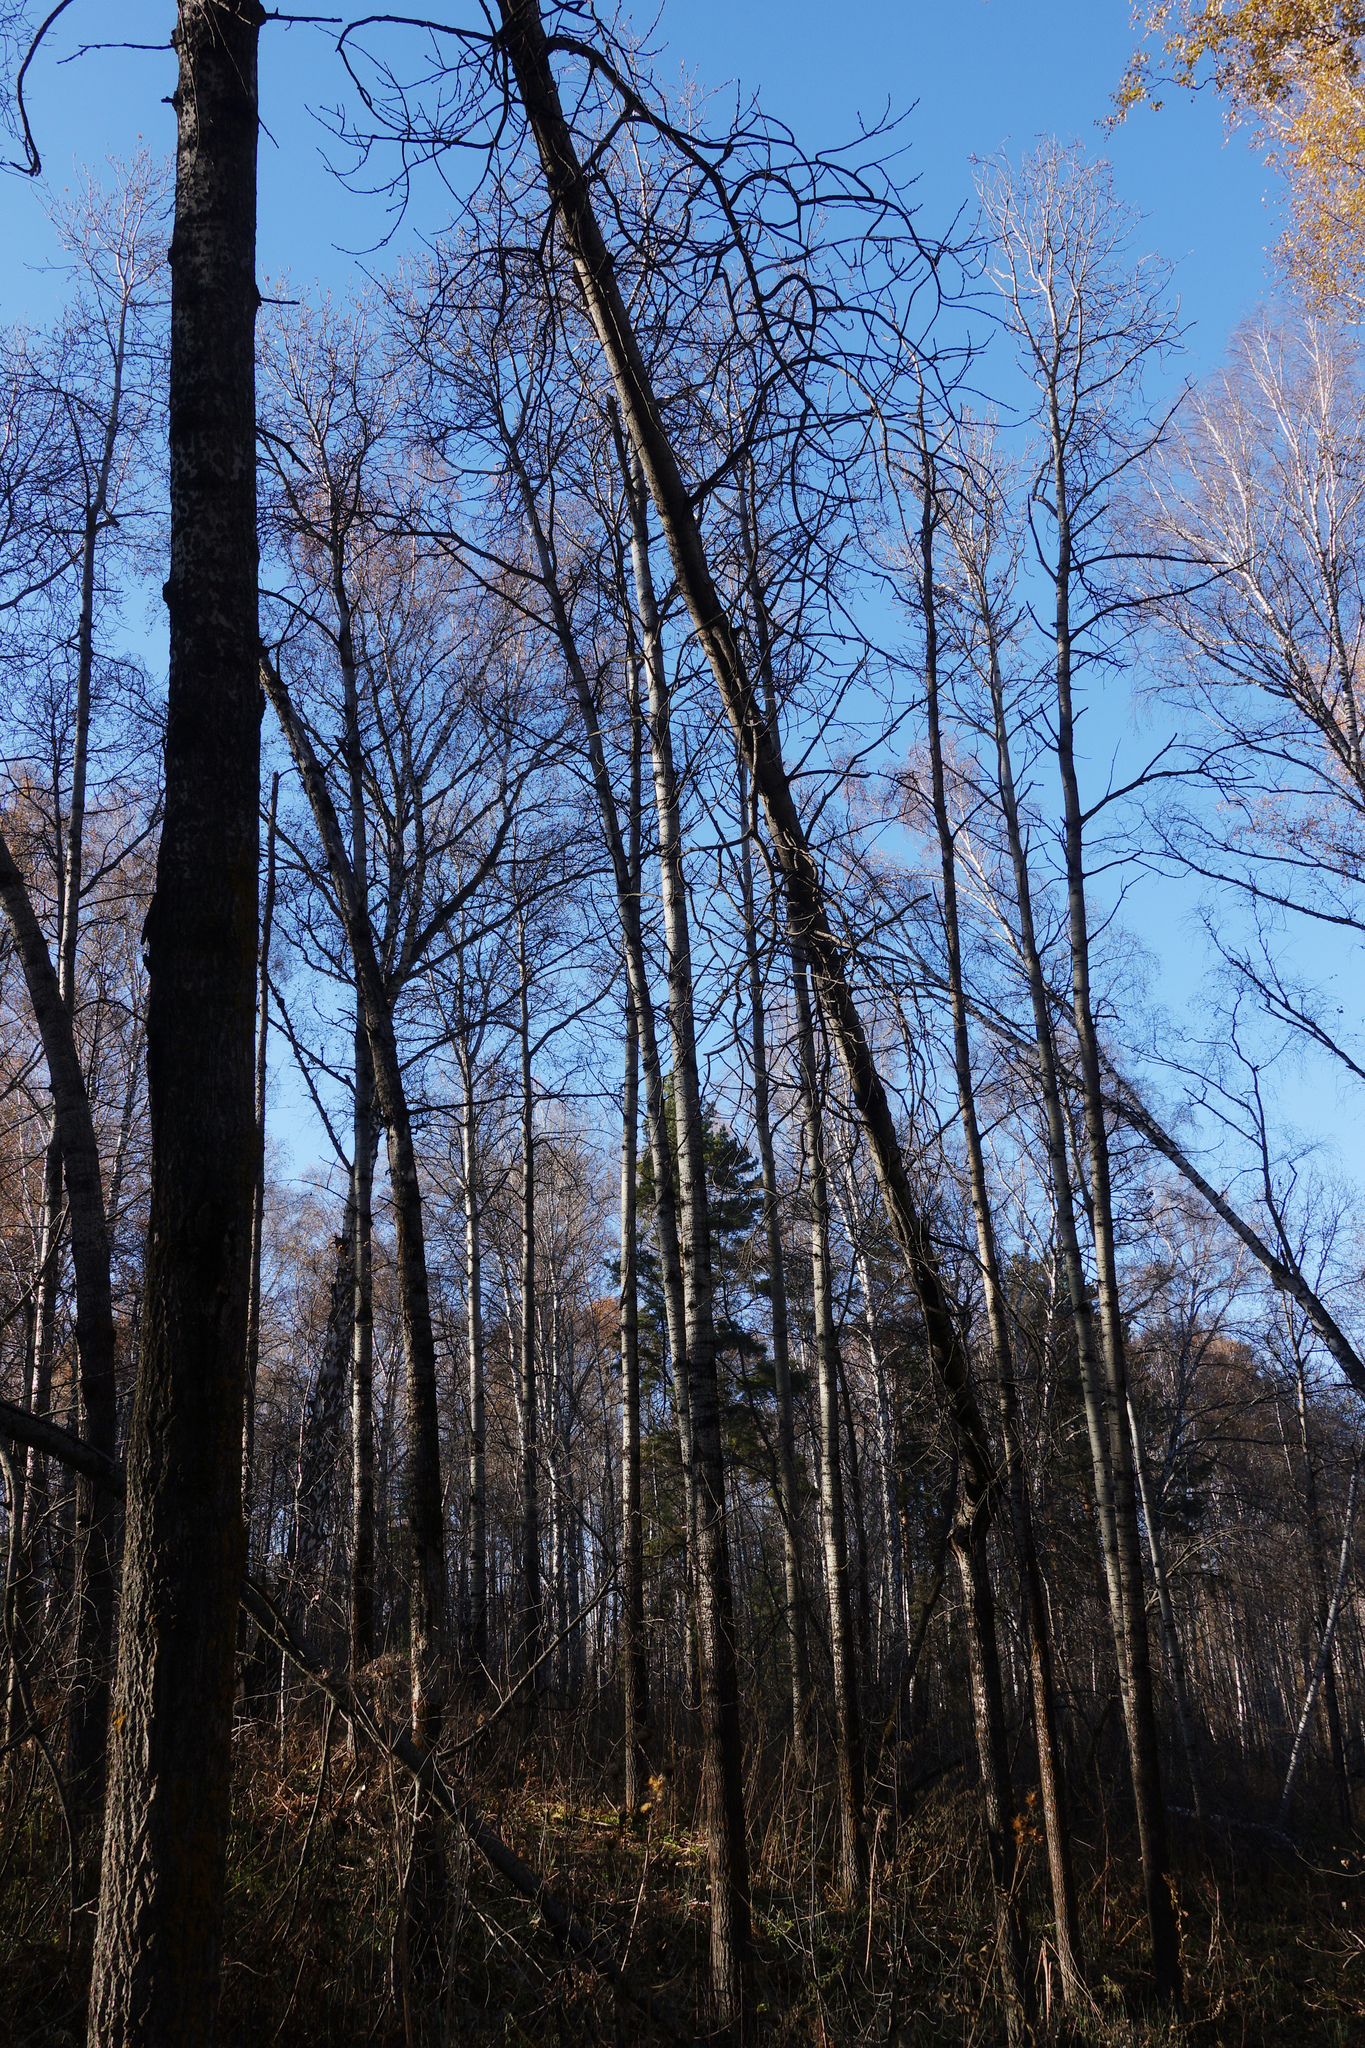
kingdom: Plantae
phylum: Tracheophyta
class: Magnoliopsida
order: Malpighiales
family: Salicaceae
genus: Populus
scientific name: Populus tremula
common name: European aspen
